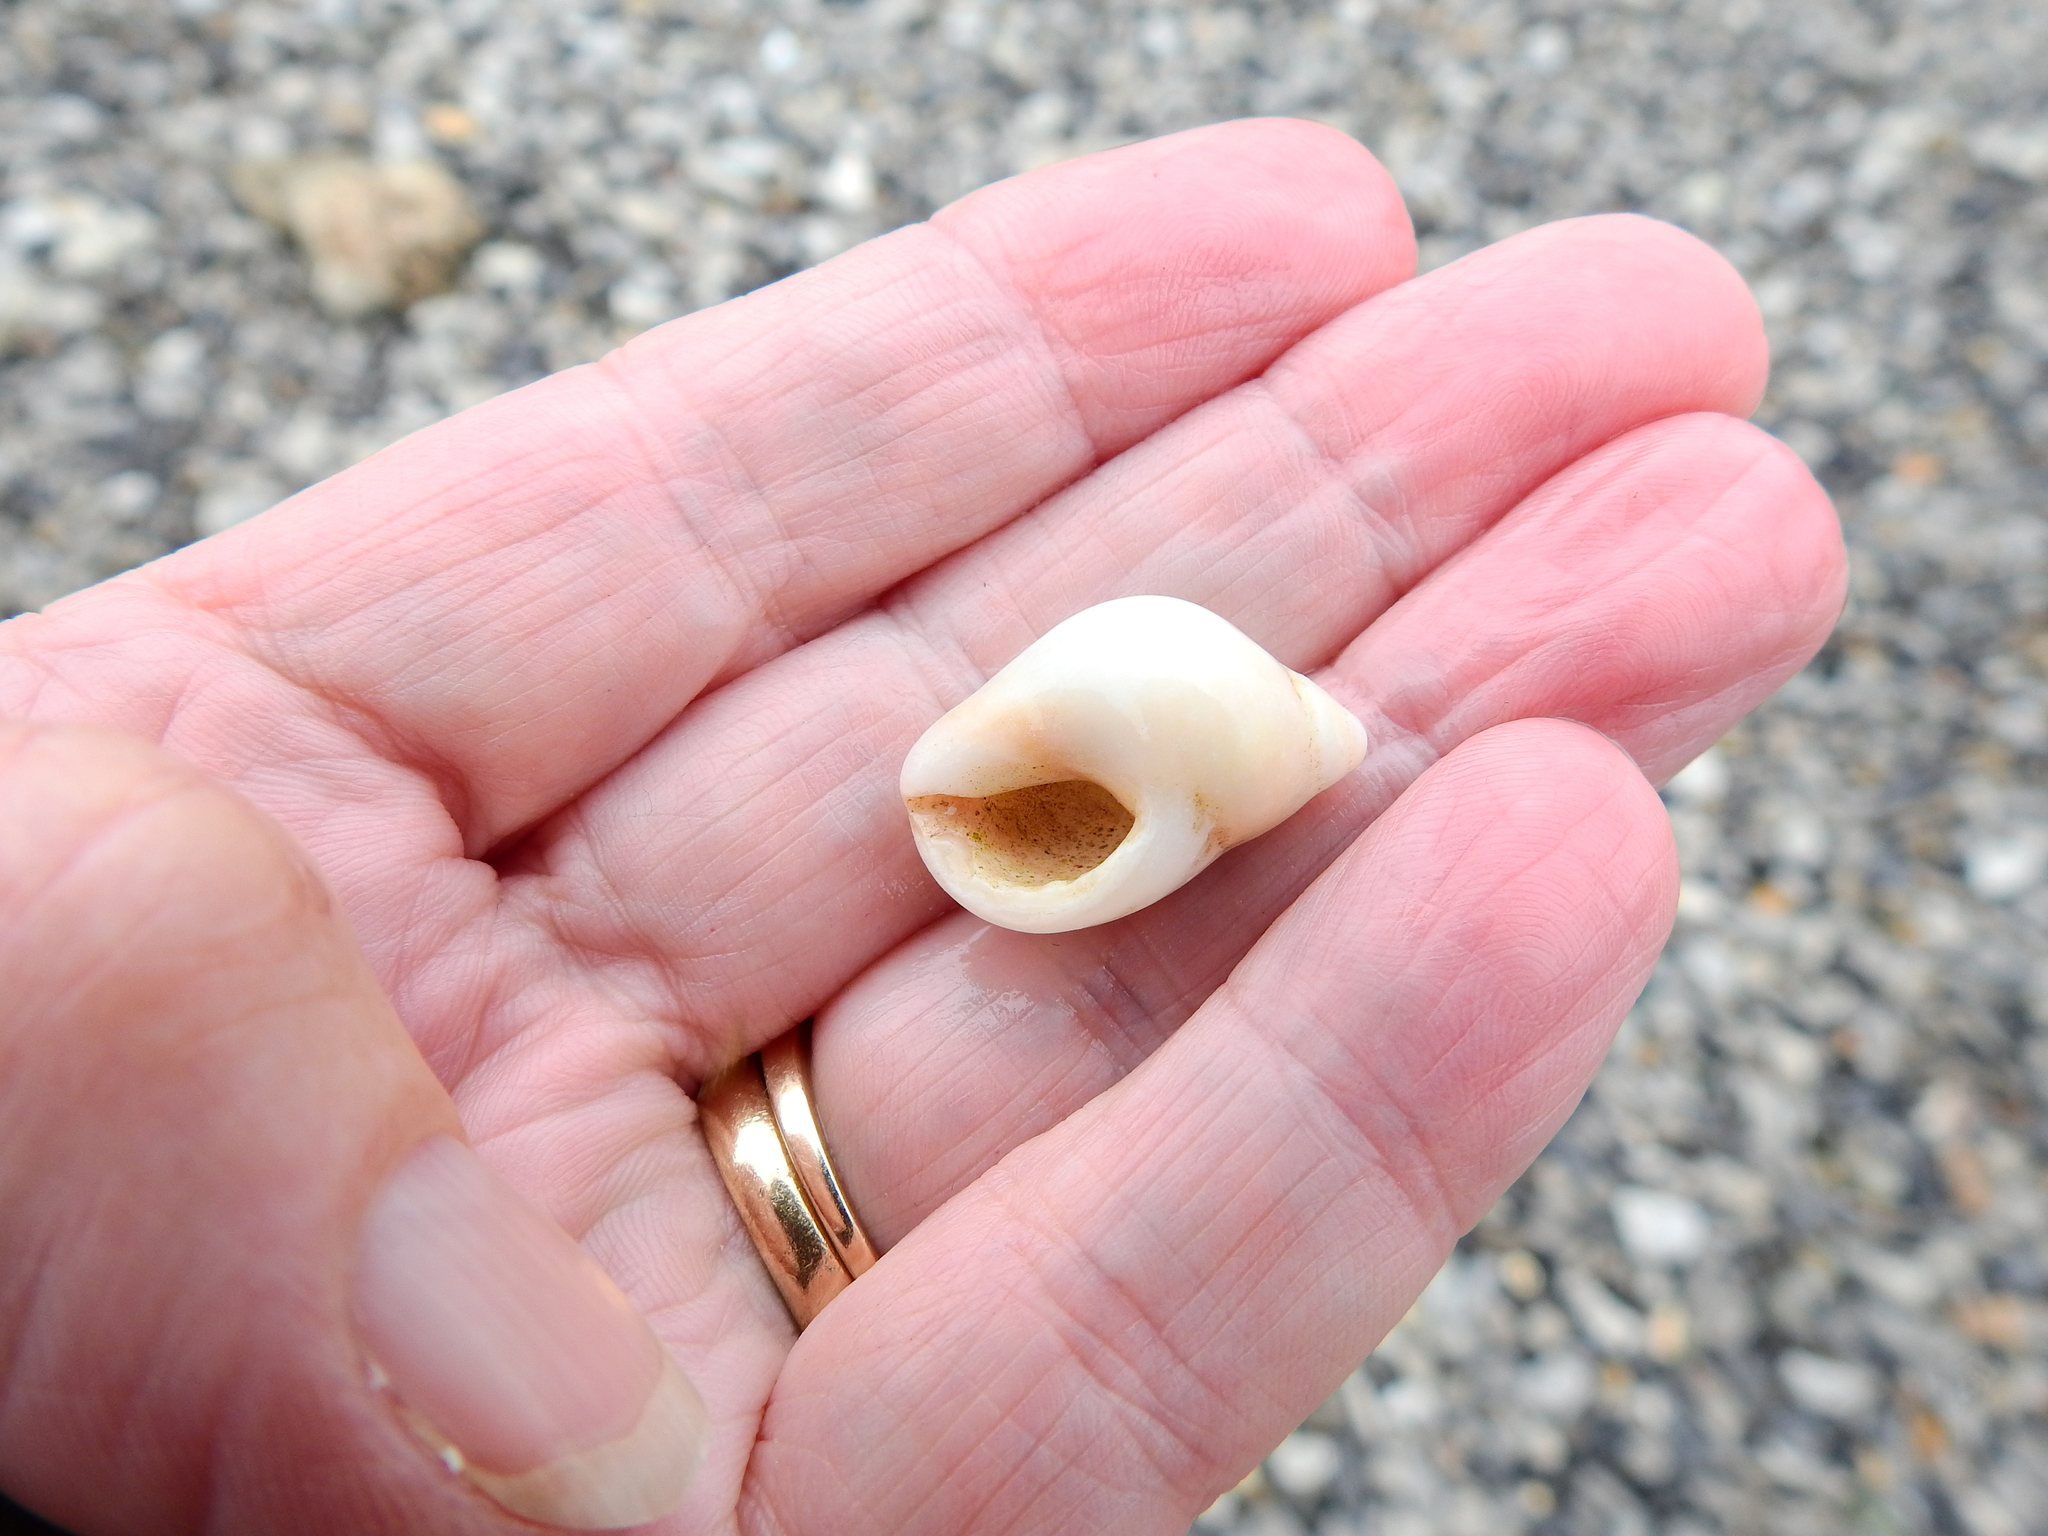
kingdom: Animalia
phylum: Mollusca
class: Gastropoda
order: Neogastropoda
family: Muricidae
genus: Nucella
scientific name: Nucella lapillus
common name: Dog whelk
